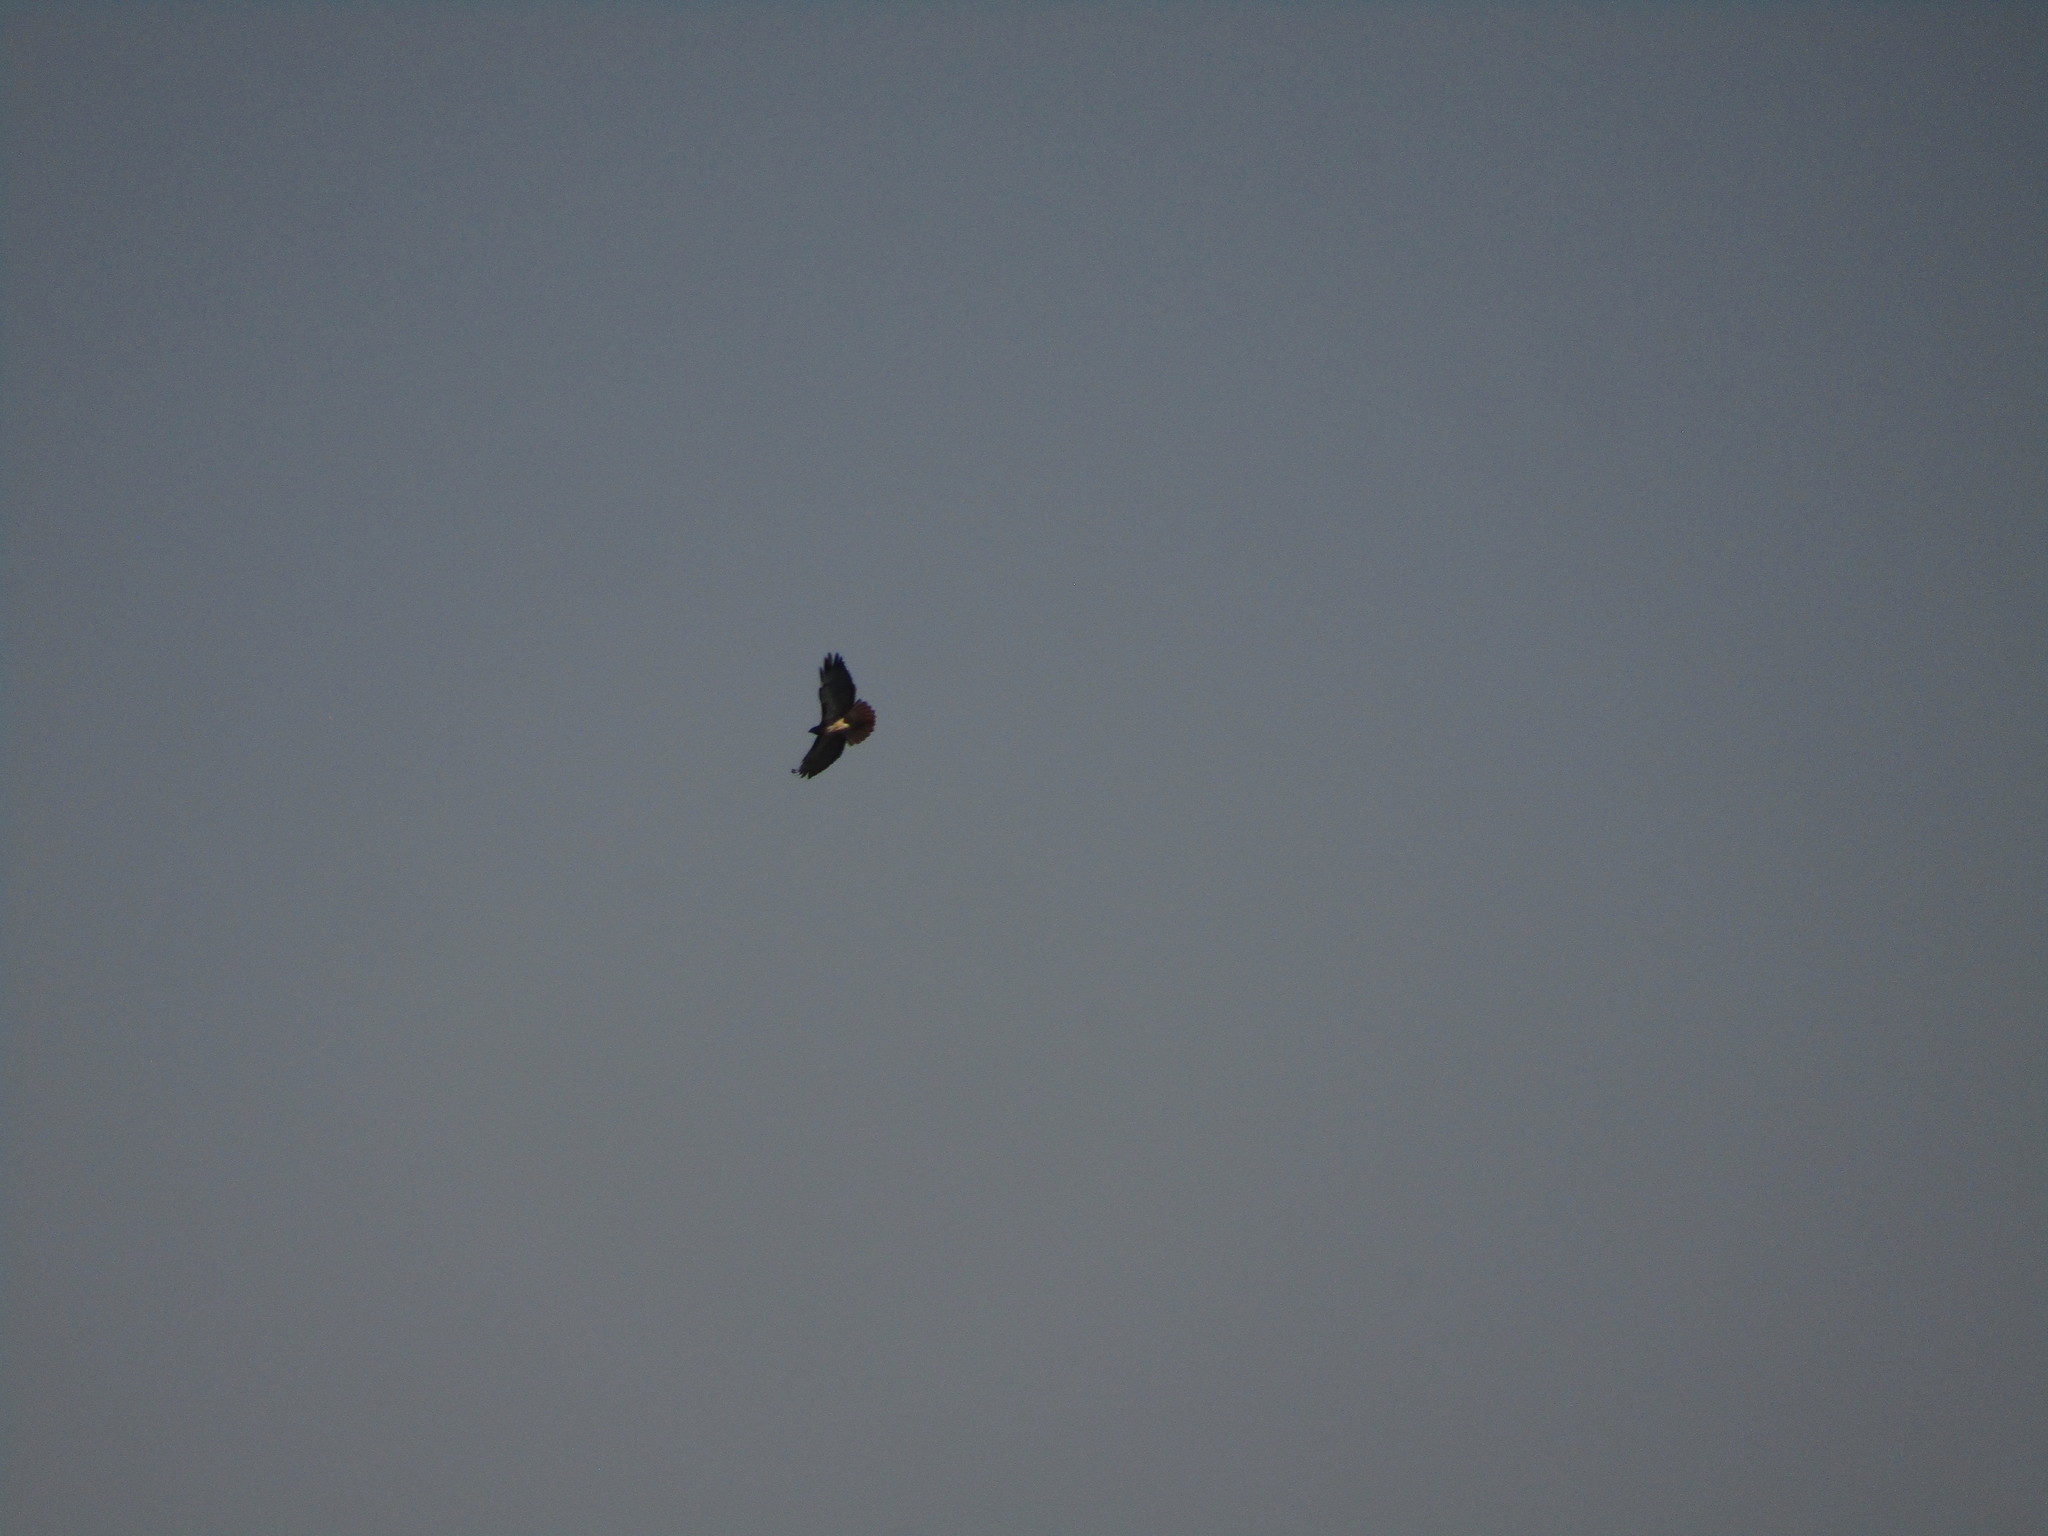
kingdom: Animalia
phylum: Chordata
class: Aves
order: Accipitriformes
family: Accipitridae
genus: Buteo
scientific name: Buteo jamaicensis
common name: Red-tailed hawk
